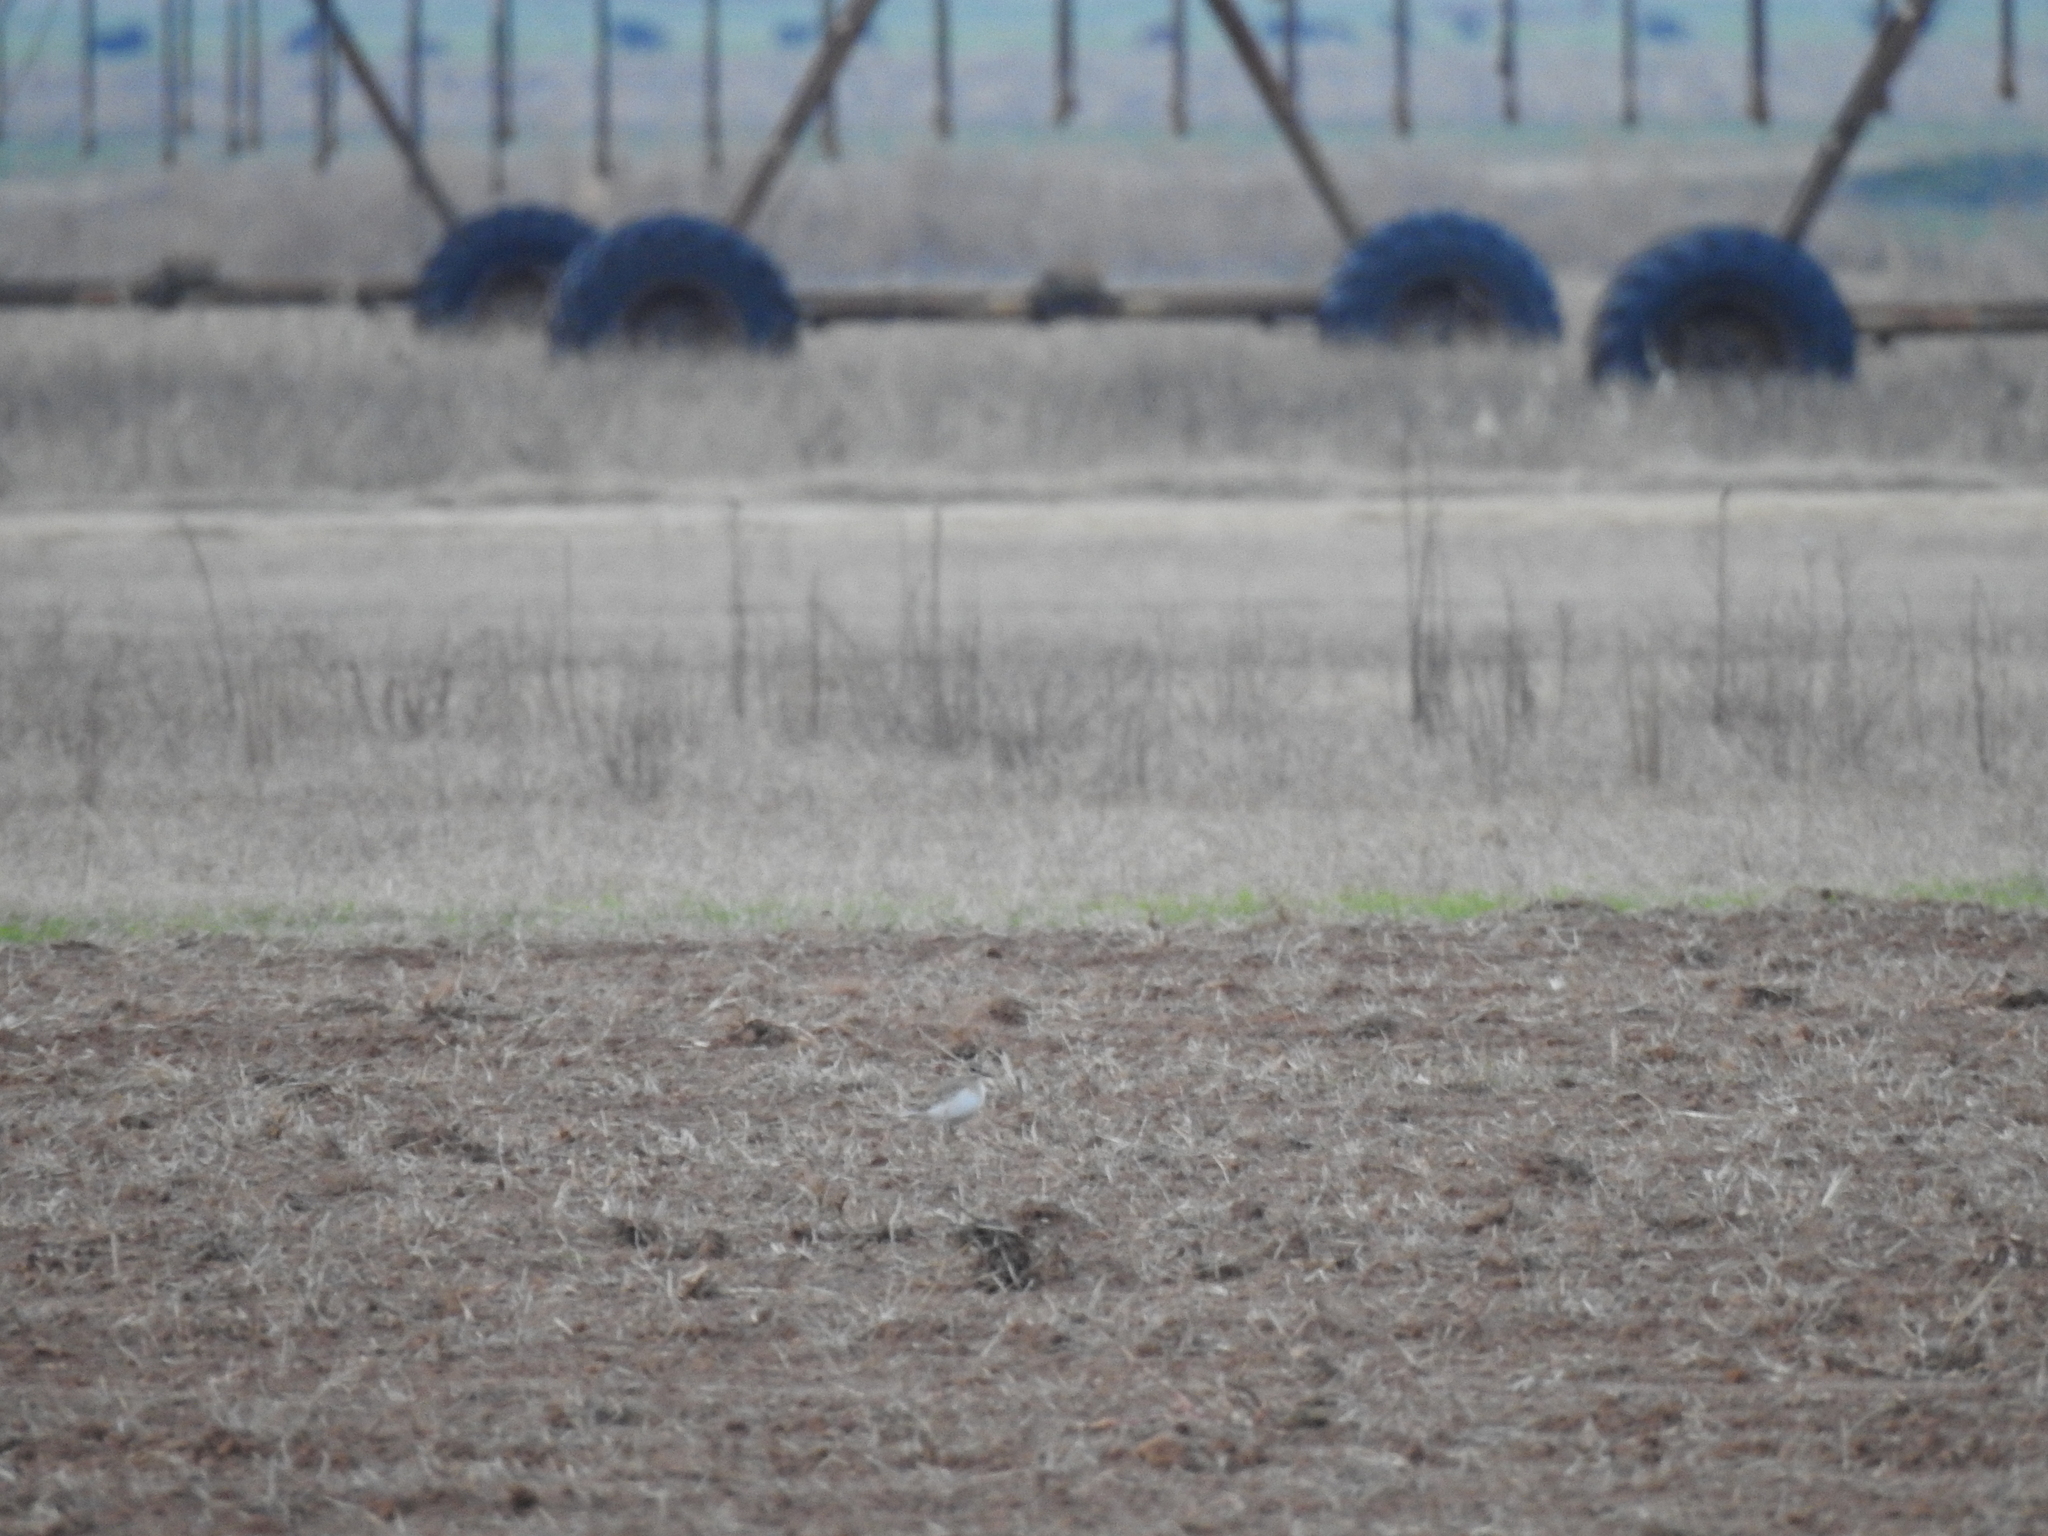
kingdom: Animalia
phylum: Chordata
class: Aves
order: Charadriiformes
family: Charadriidae
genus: Anarhynchus
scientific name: Anarhynchus
